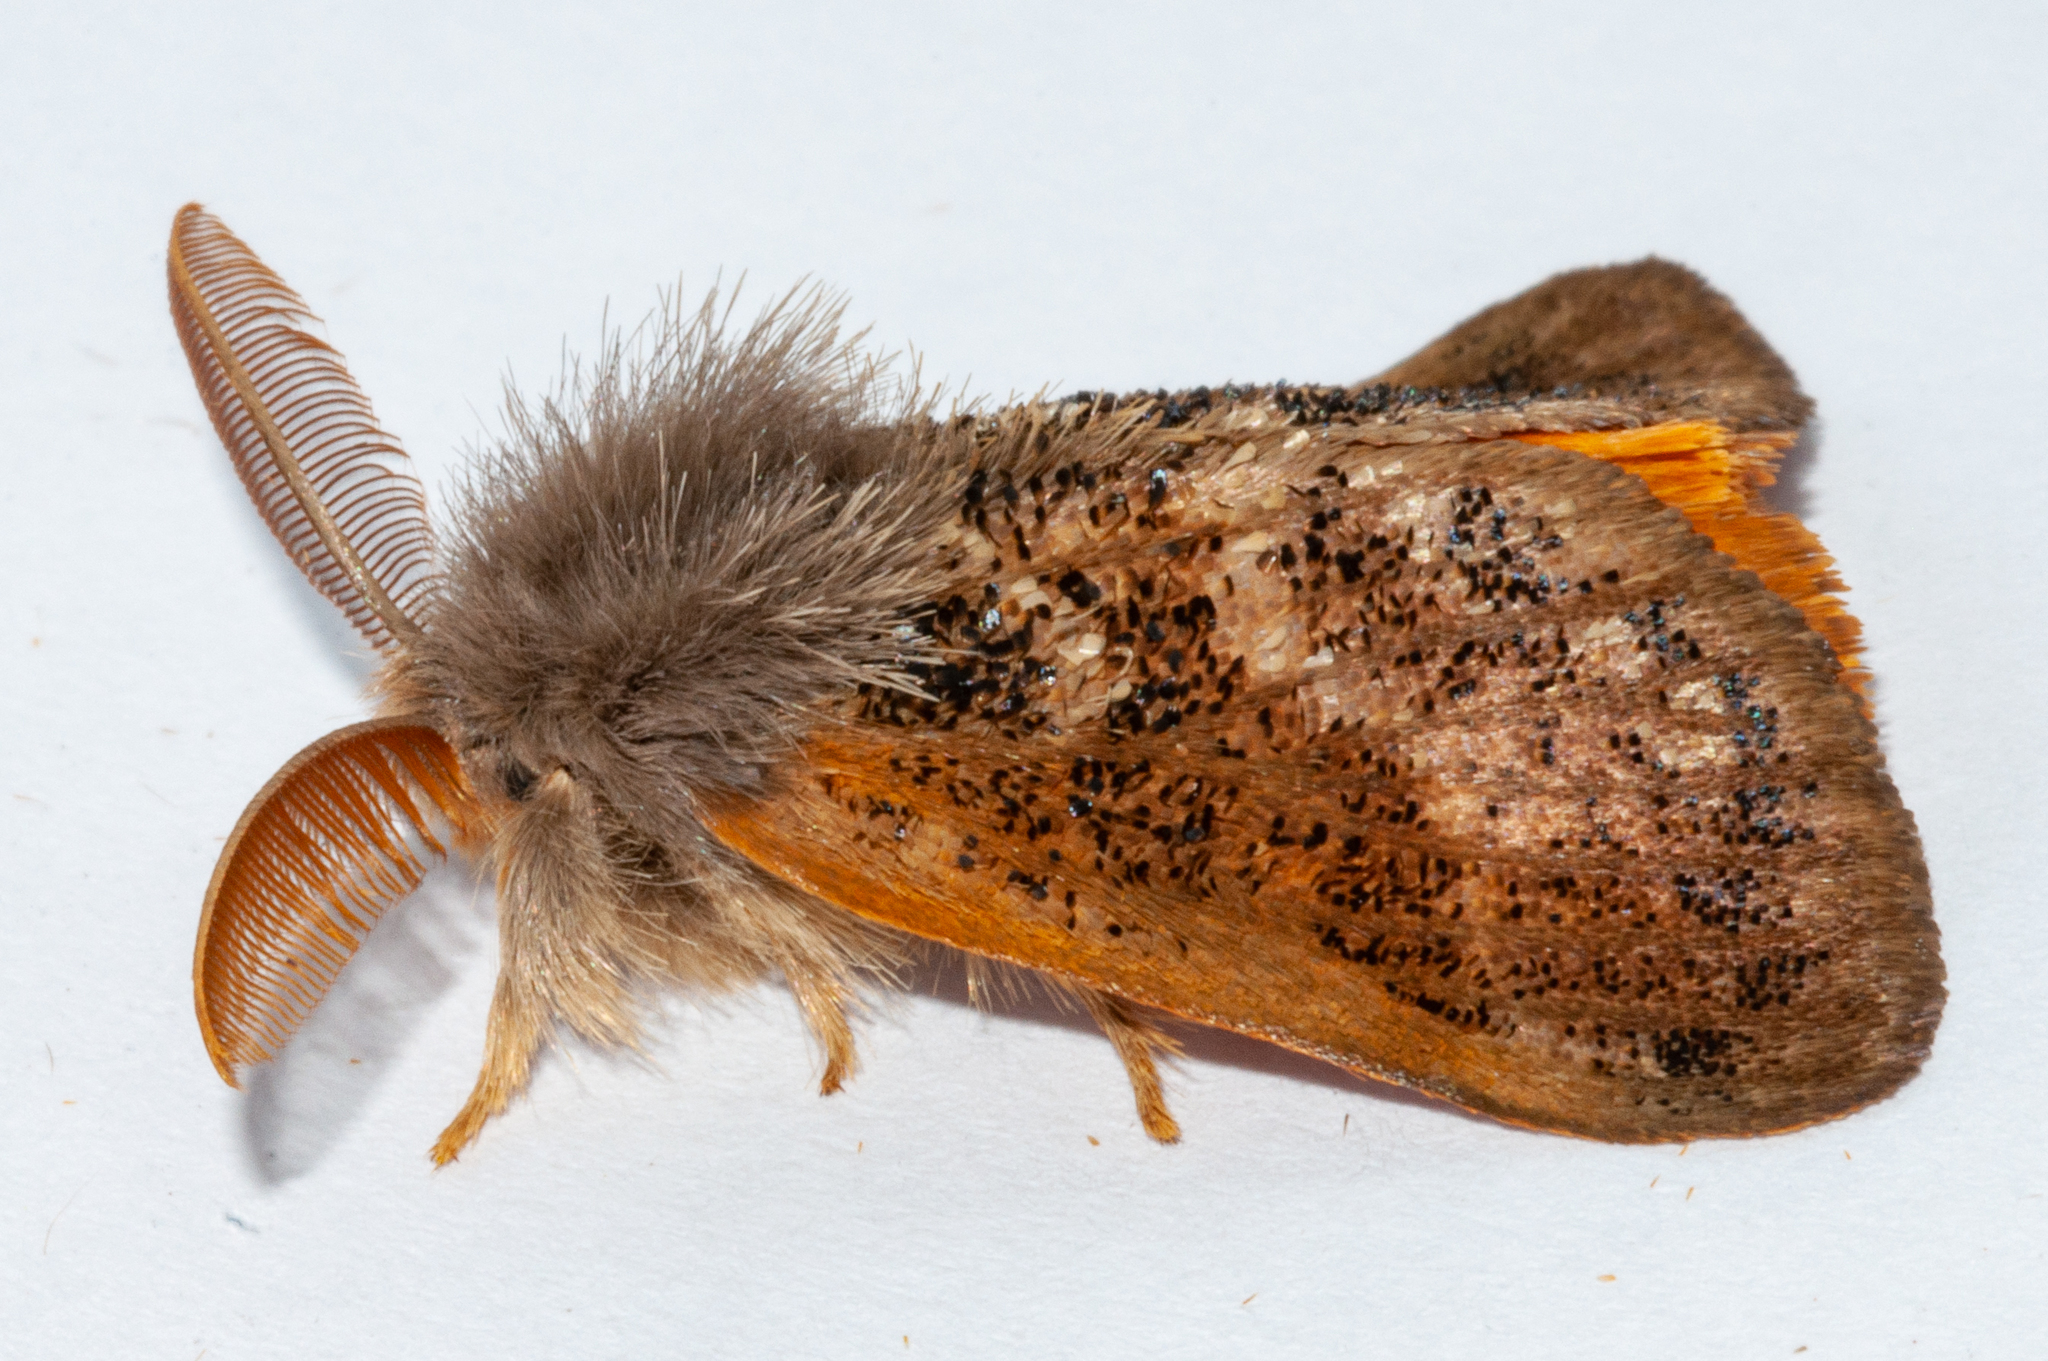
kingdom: Animalia
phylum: Arthropoda
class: Insecta
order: Lepidoptera
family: Erebidae
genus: Euproctis
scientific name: Euproctis
